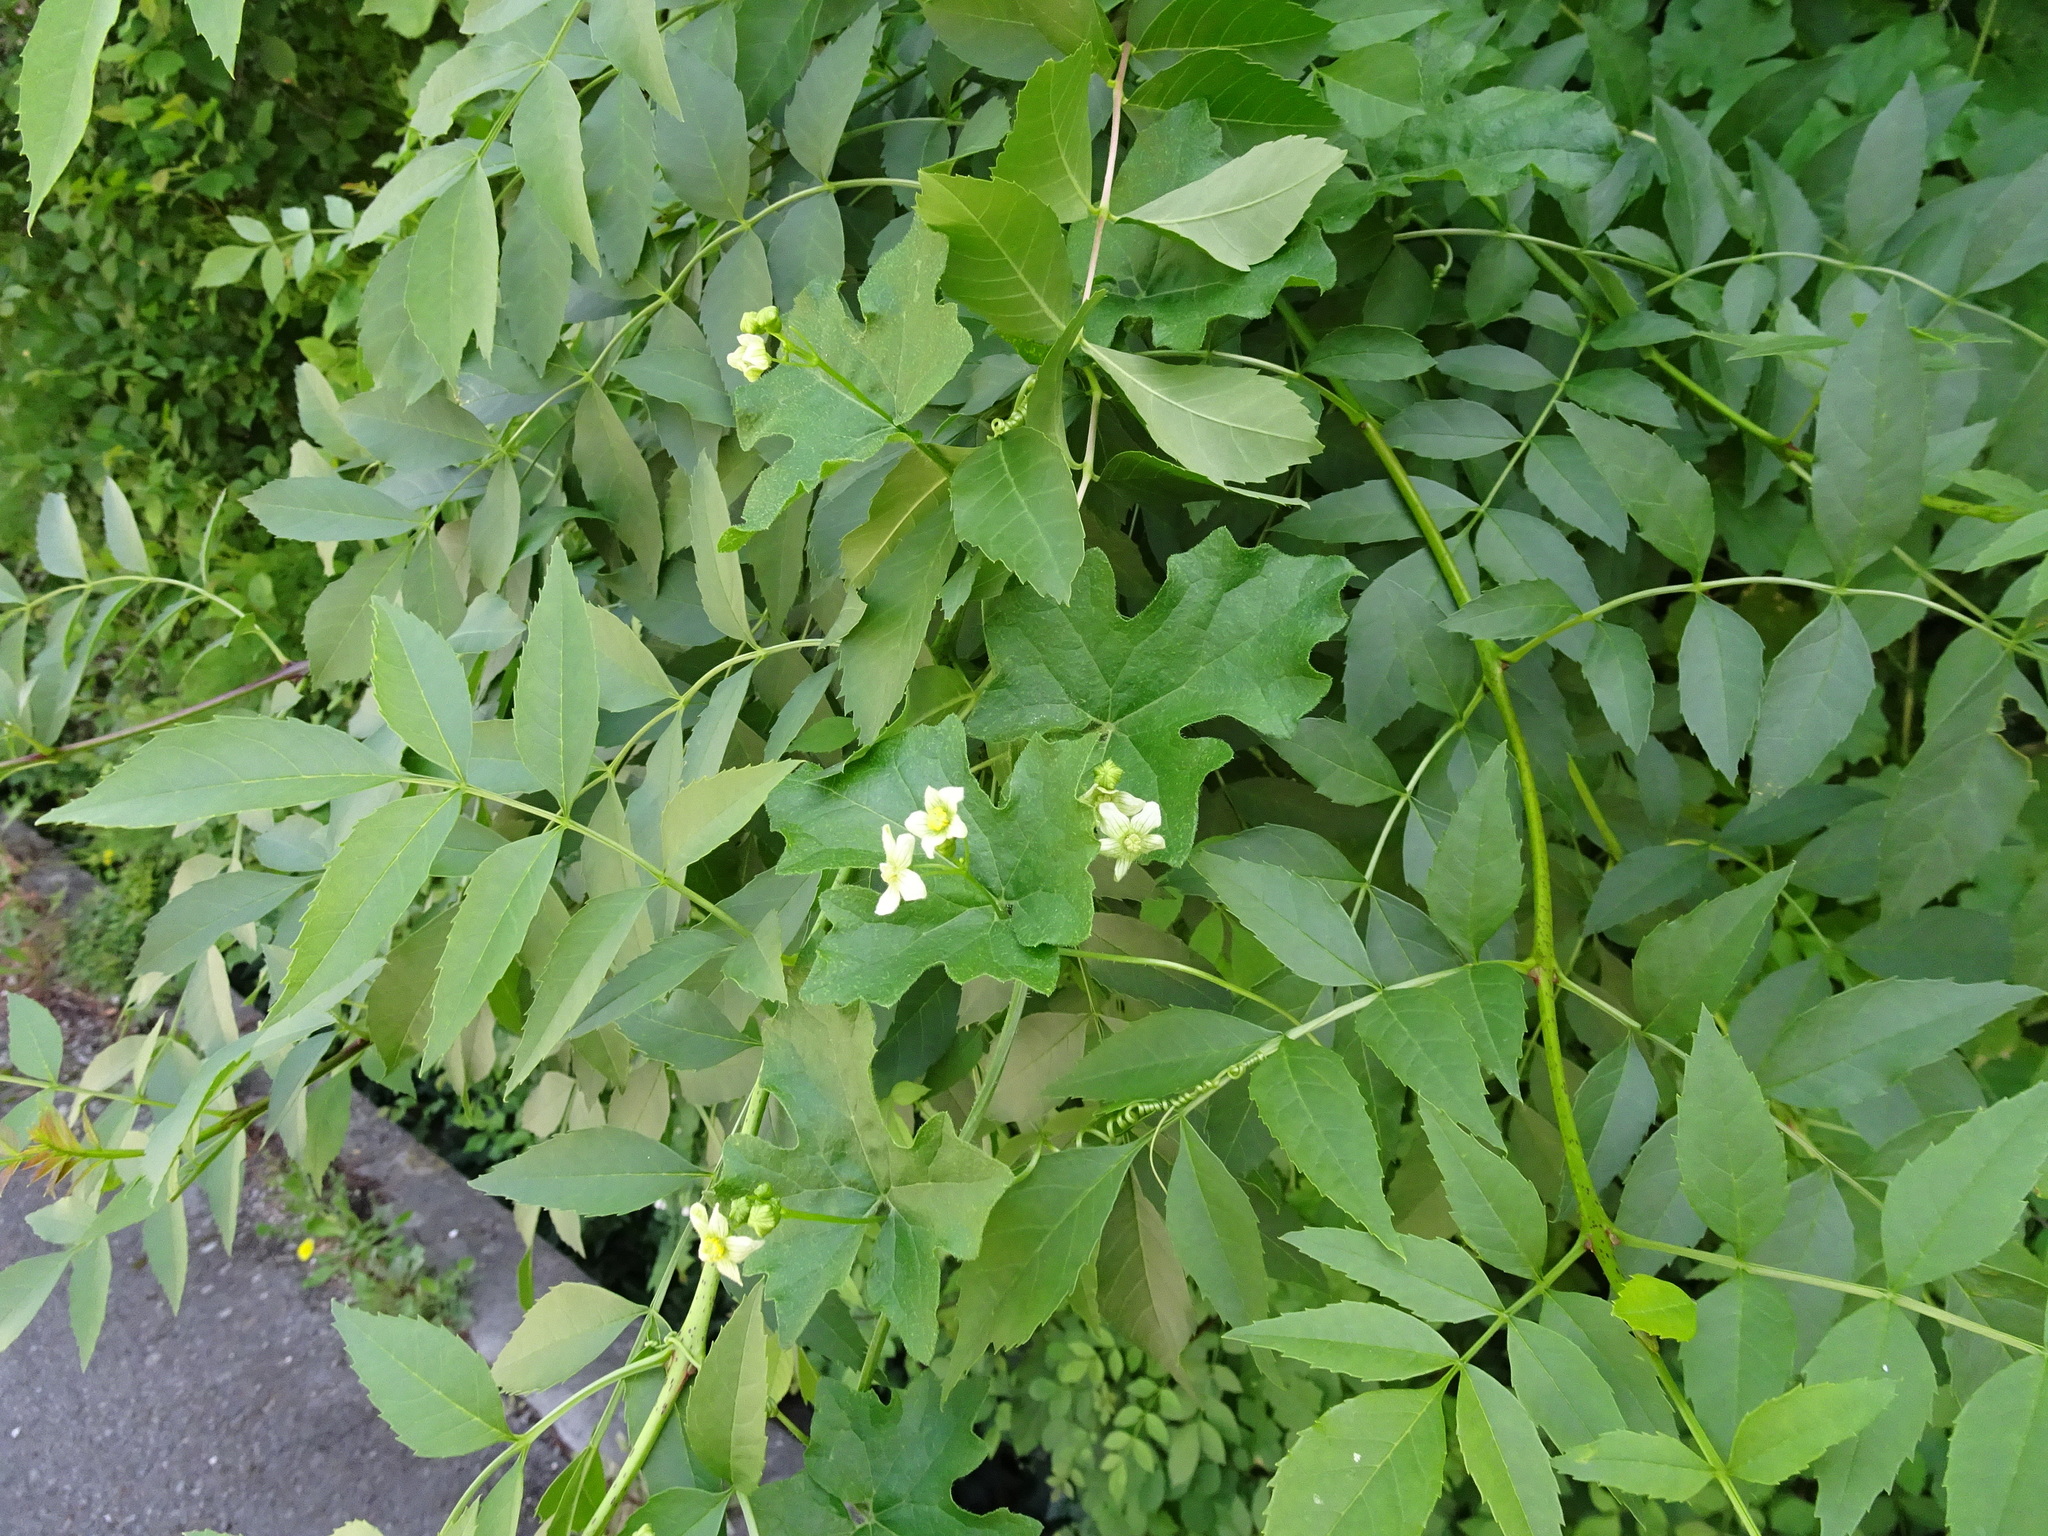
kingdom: Plantae
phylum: Tracheophyta
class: Magnoliopsida
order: Cucurbitales
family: Cucurbitaceae
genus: Bryonia
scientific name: Bryonia dioica
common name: White bryony
